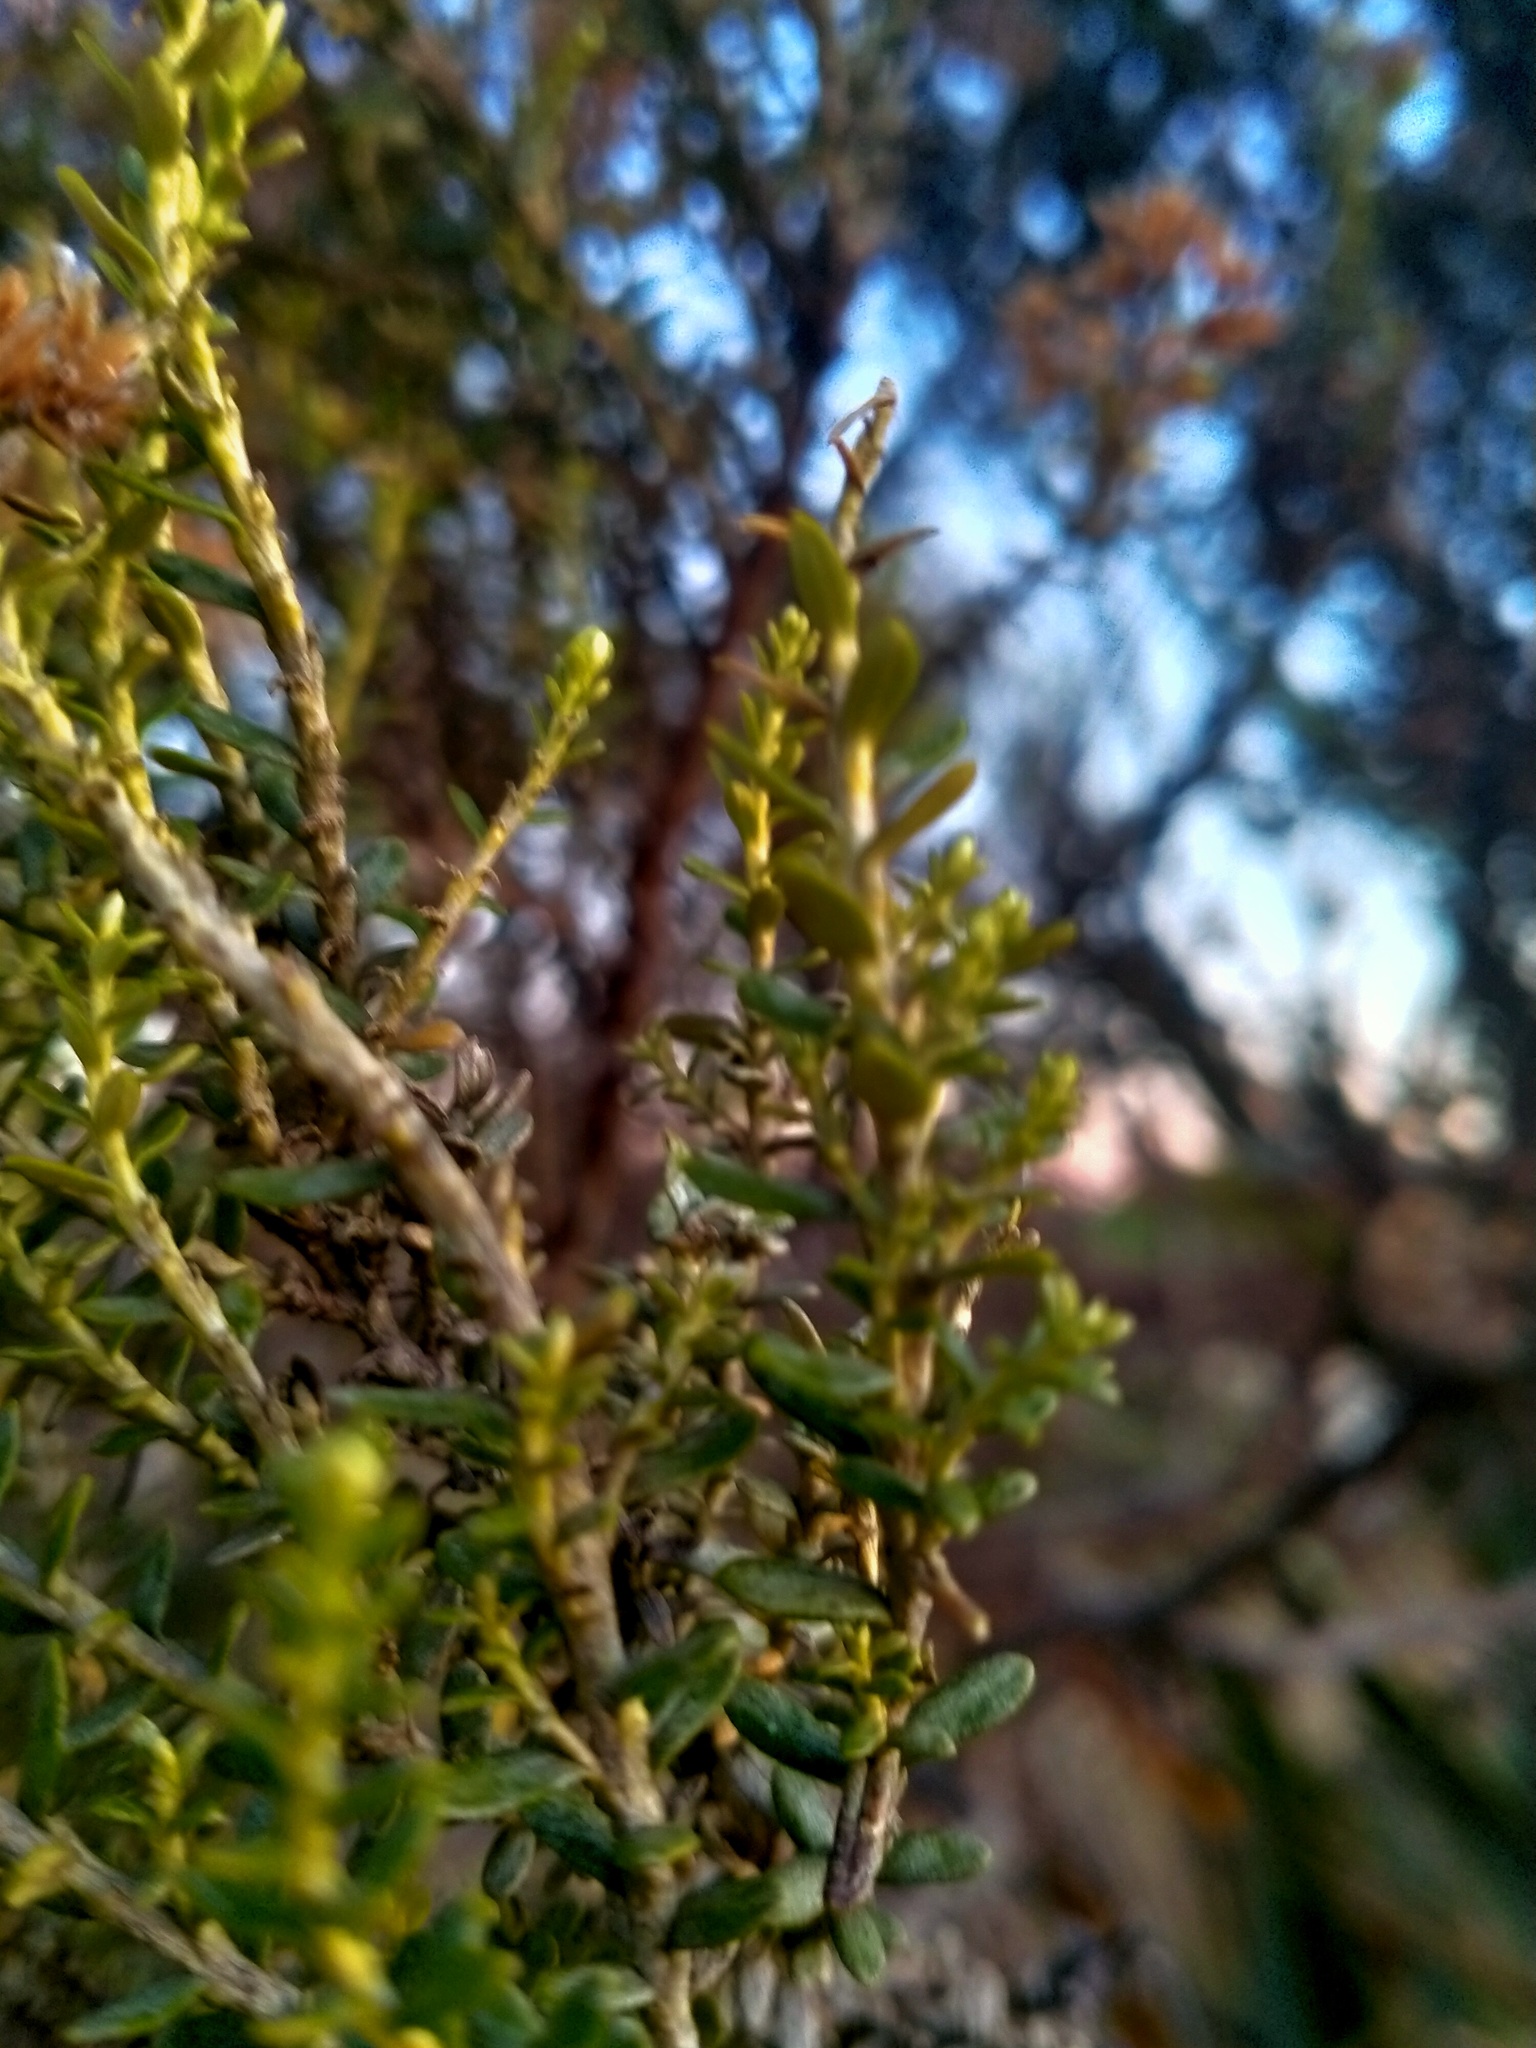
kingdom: Plantae
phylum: Tracheophyta
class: Magnoliopsida
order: Asterales
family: Asteraceae
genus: Ozothamnus
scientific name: Ozothamnus leptophyllus
